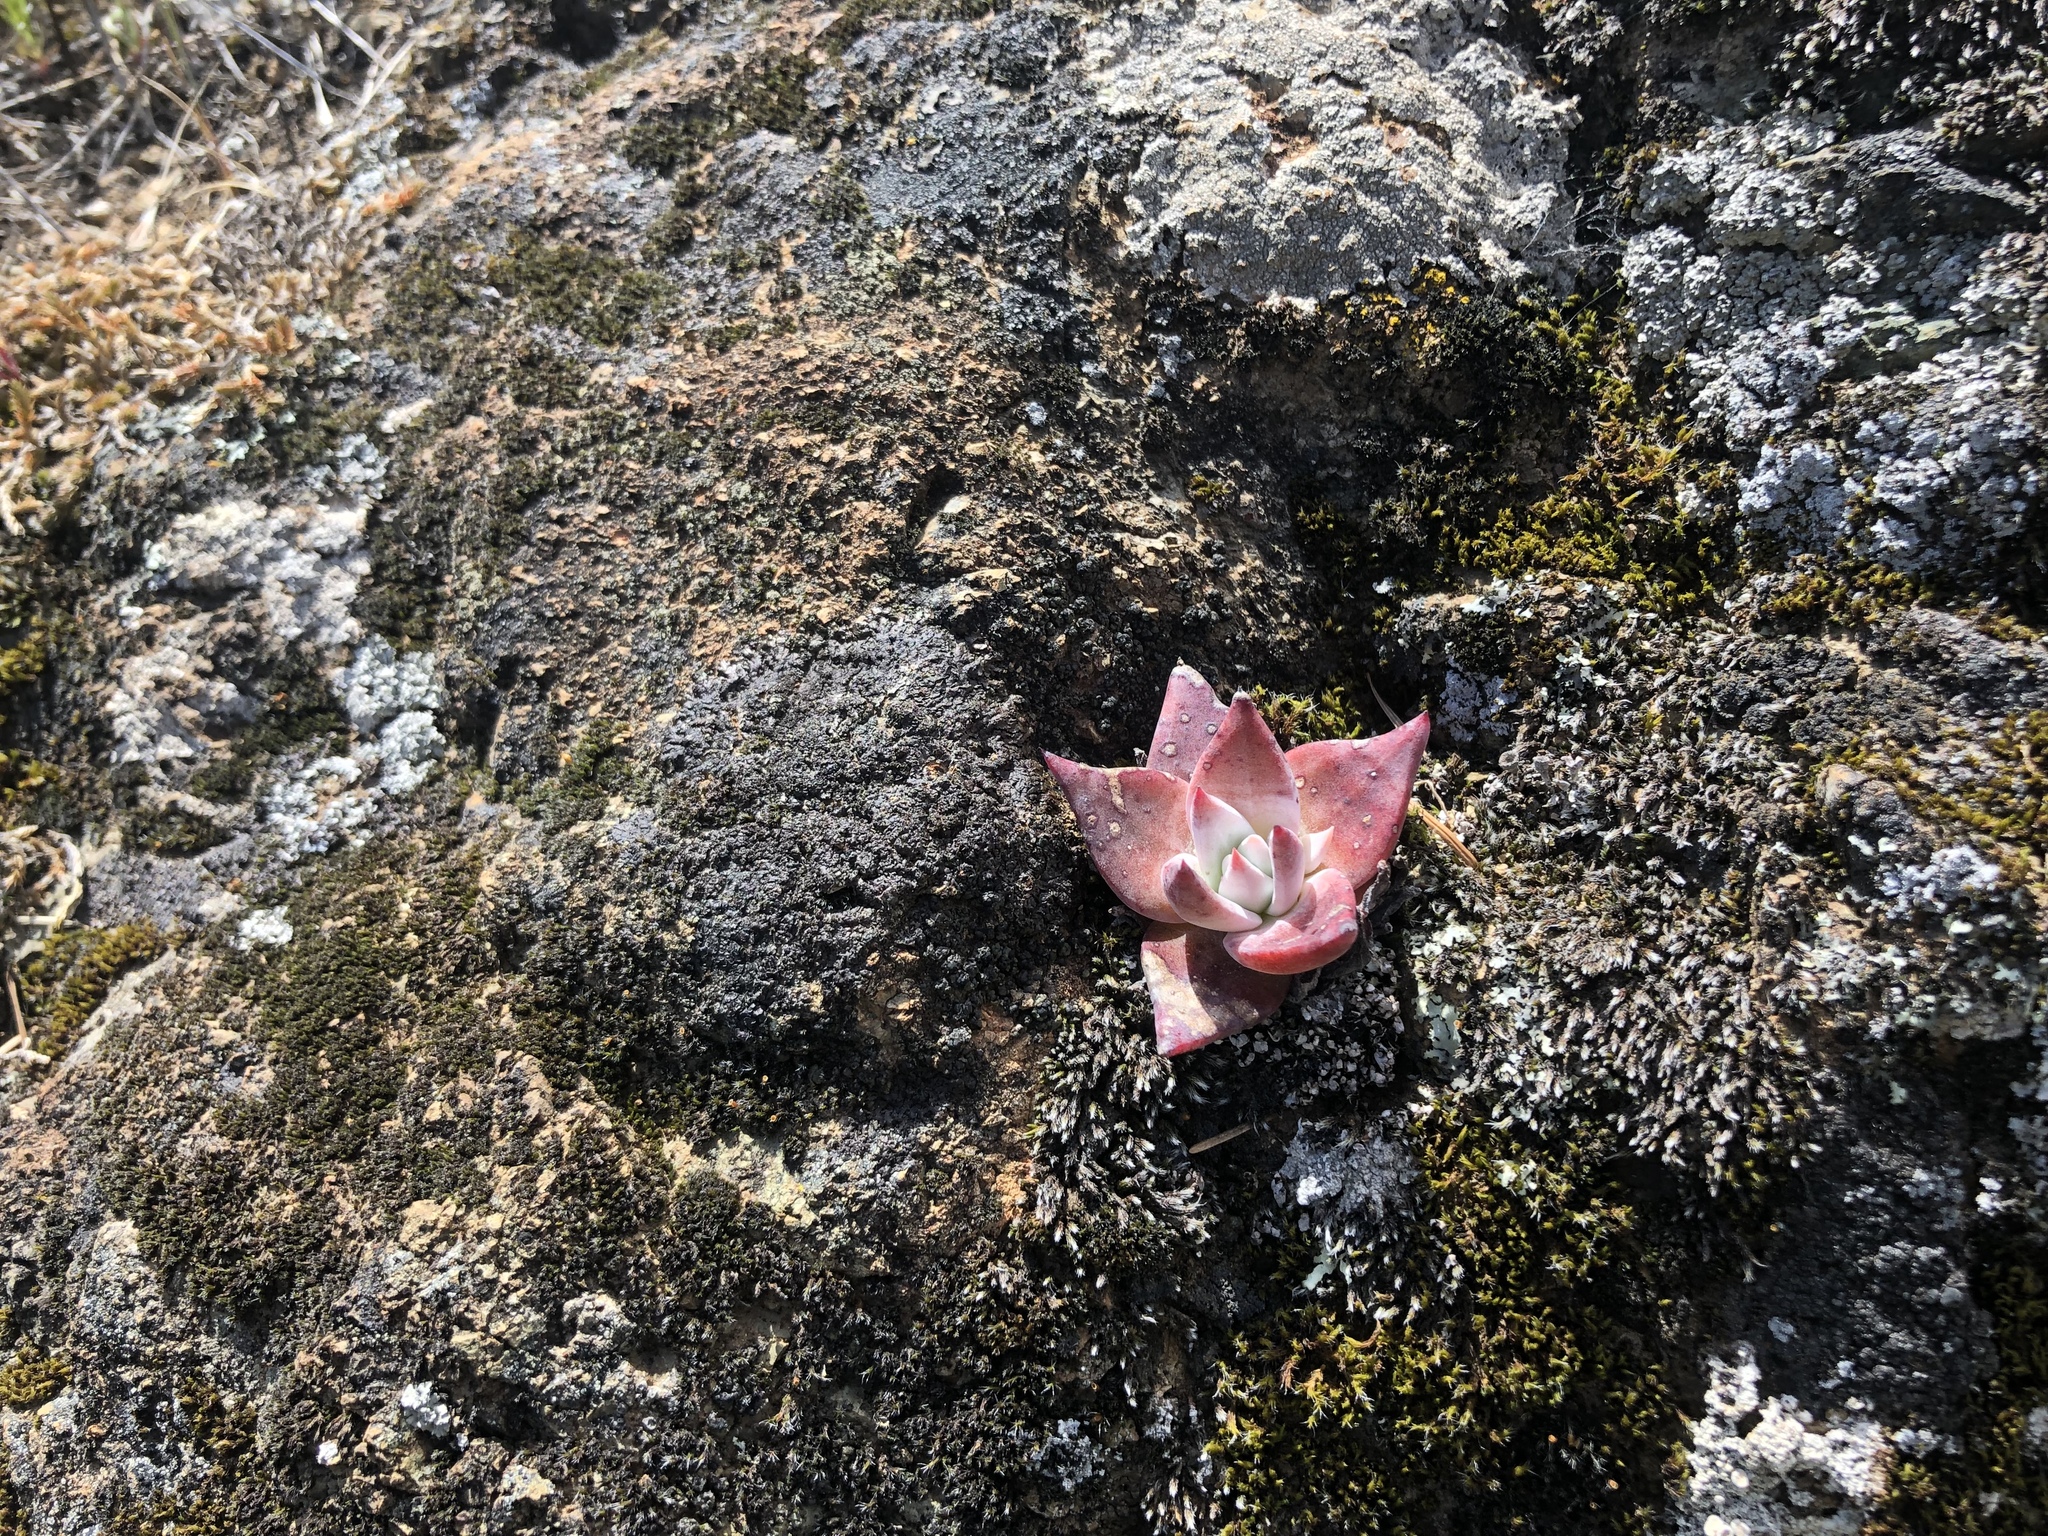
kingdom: Plantae
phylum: Tracheophyta
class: Magnoliopsida
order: Saxifragales
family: Crassulaceae
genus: Dudleya
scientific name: Dudleya cymosa
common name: Canyon dudleya
